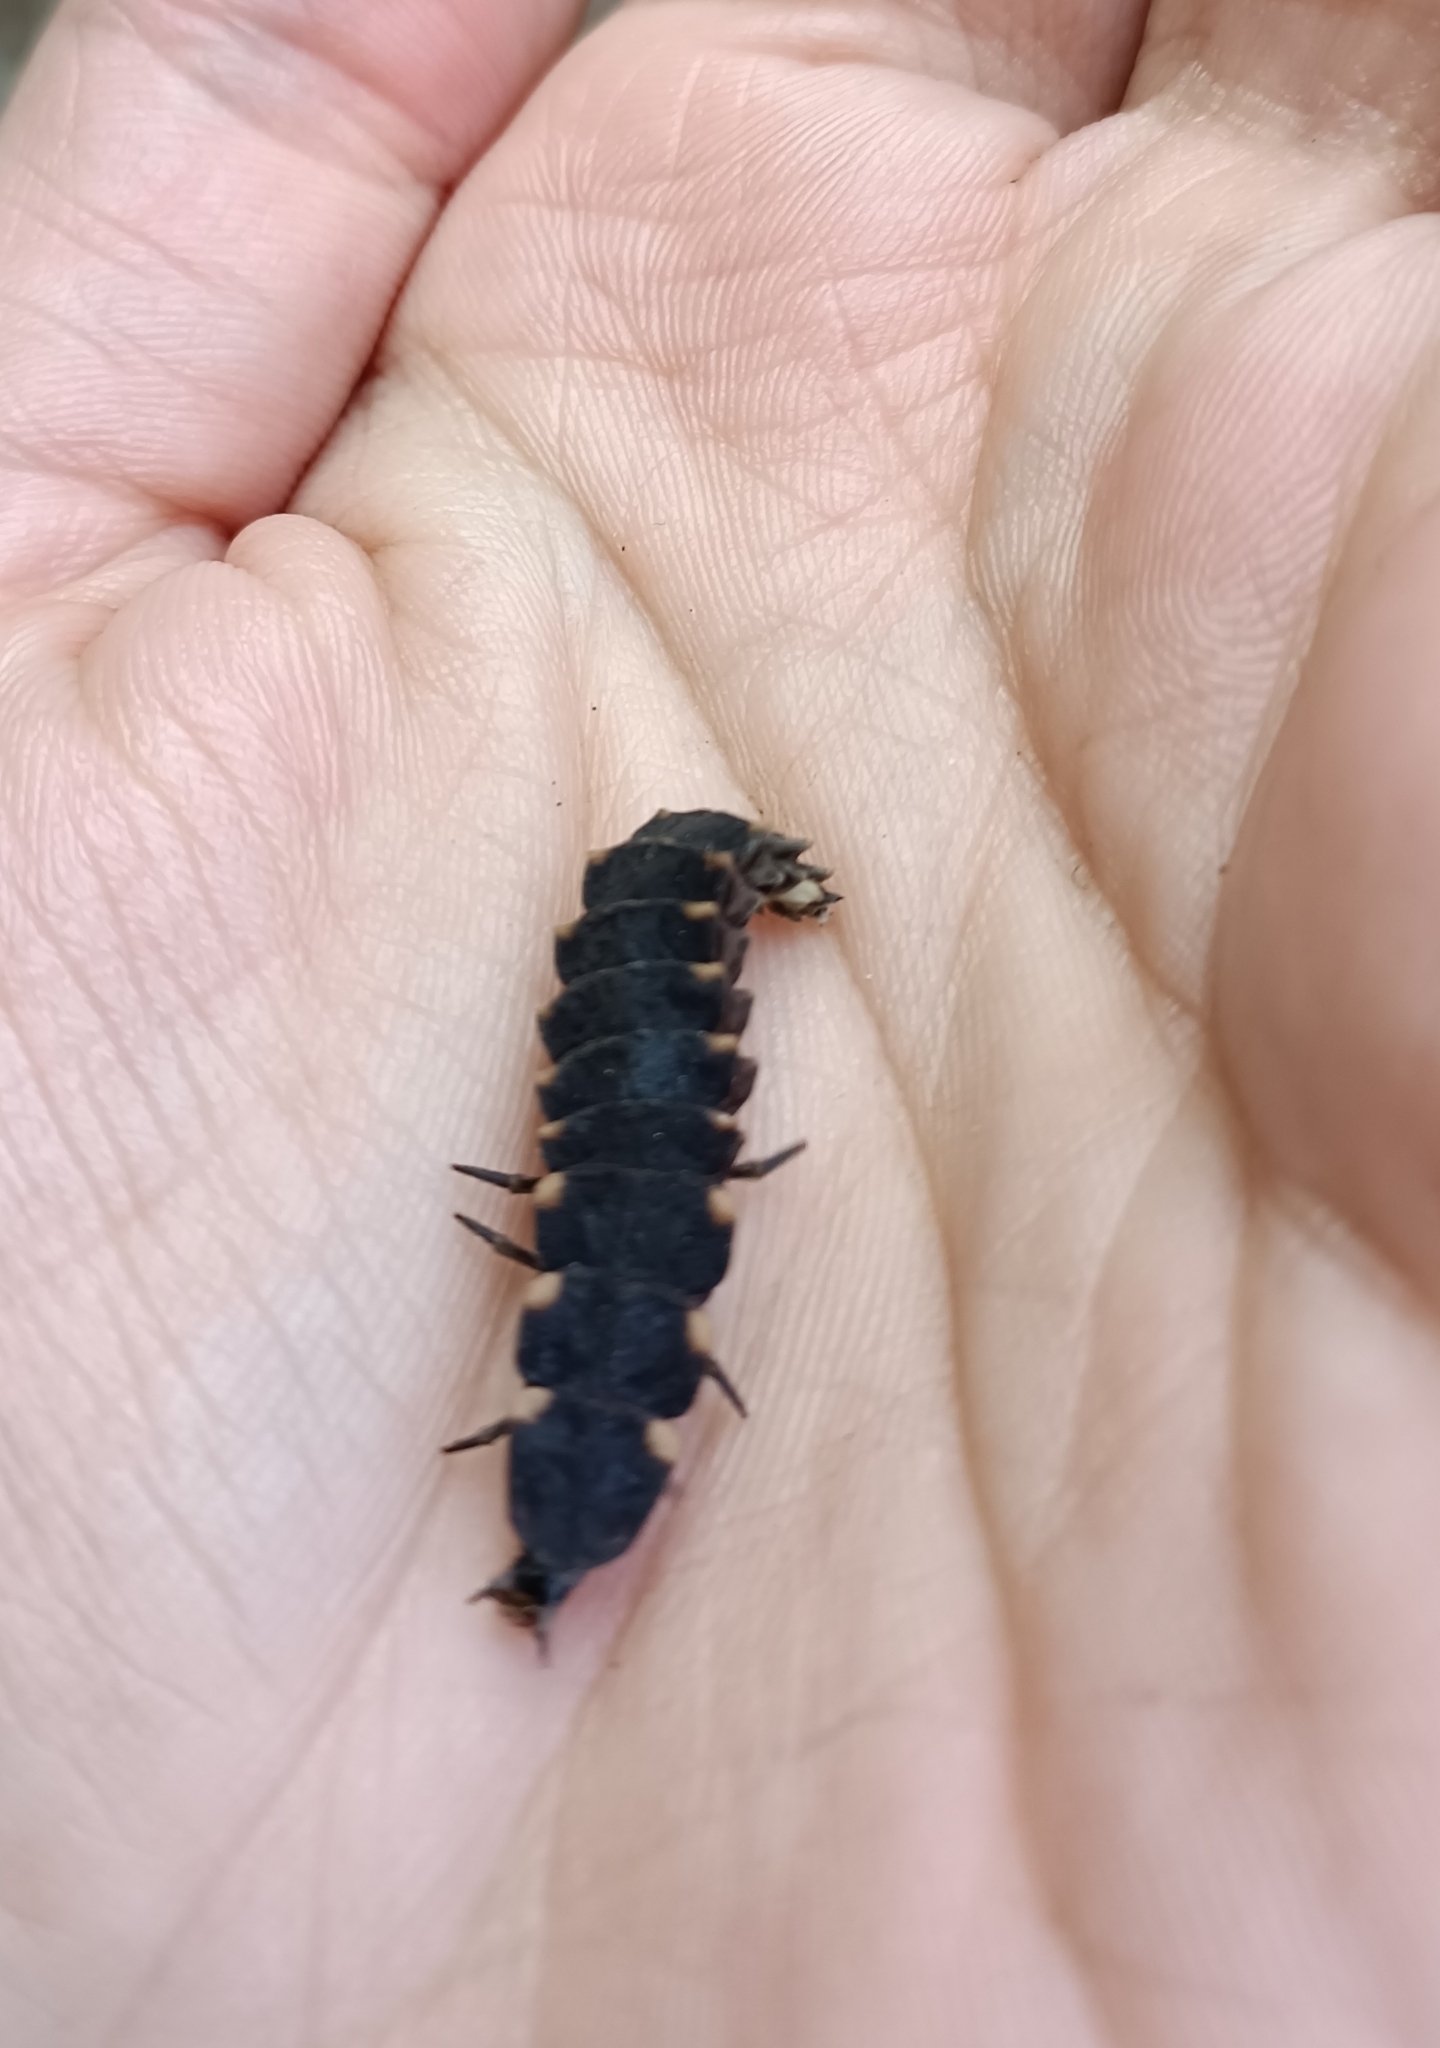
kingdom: Animalia
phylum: Arthropoda
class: Insecta
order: Coleoptera
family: Lampyridae
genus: Lampyris
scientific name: Lampyris noctiluca
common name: Glow-worm
